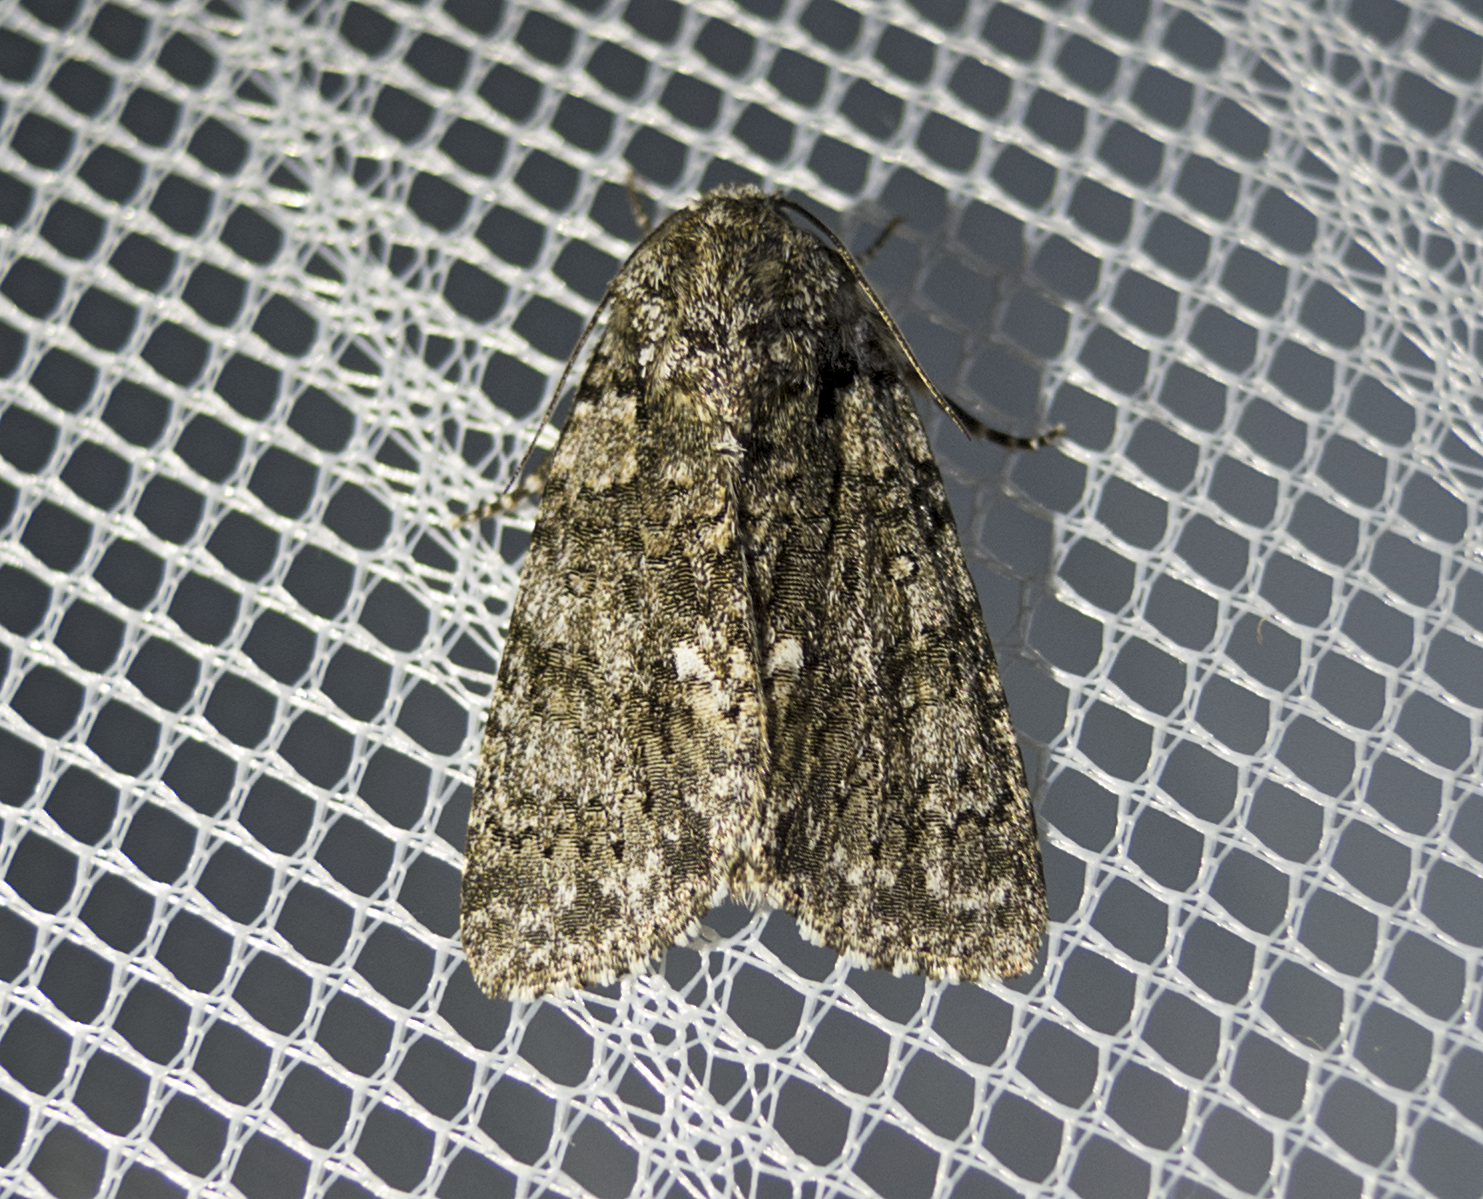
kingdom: Animalia
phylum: Arthropoda
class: Insecta
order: Lepidoptera
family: Noctuidae
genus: Acronicta
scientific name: Acronicta rumicis
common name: Knot grass
